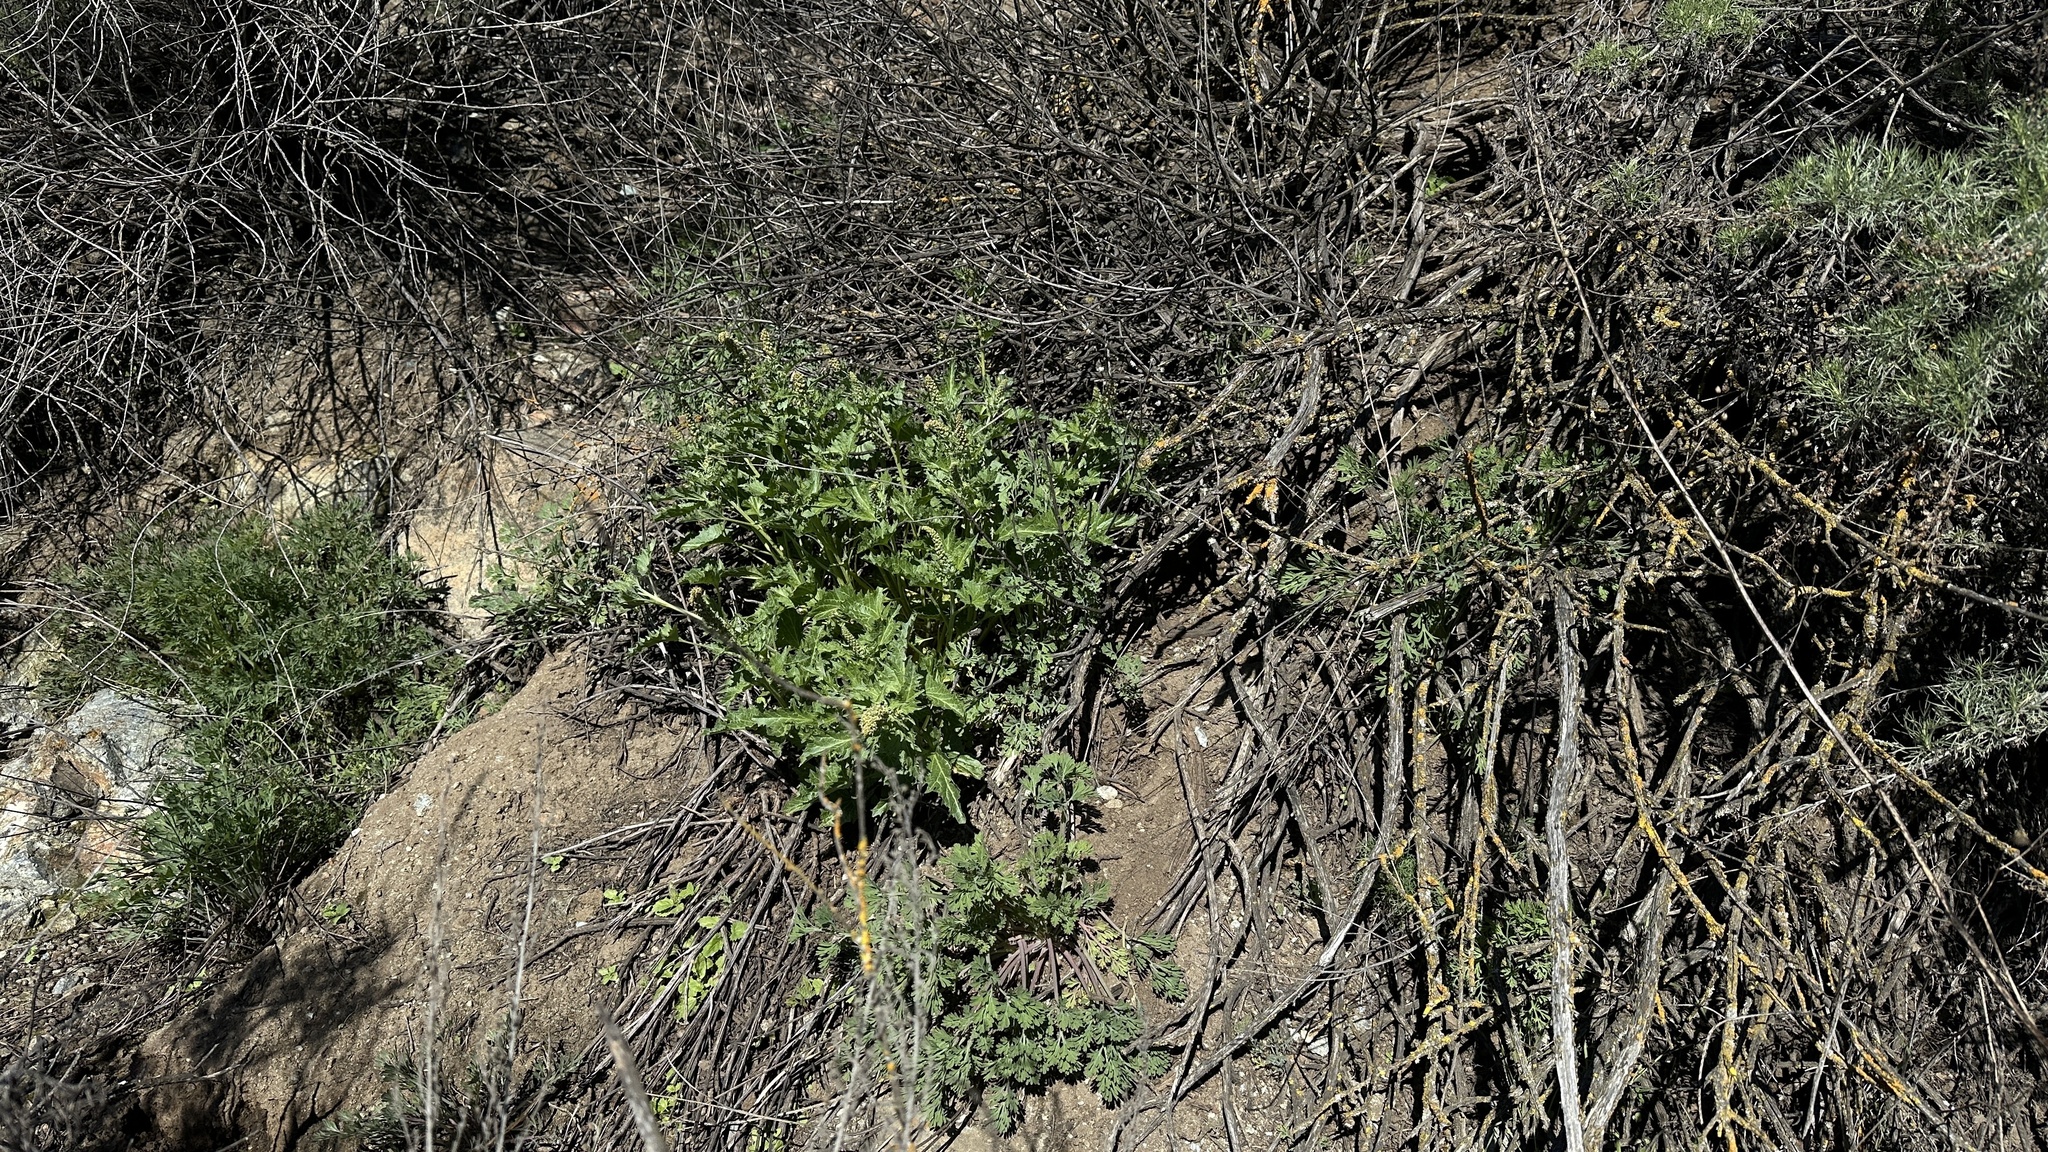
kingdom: Plantae
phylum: Tracheophyta
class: Magnoliopsida
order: Caryophyllales
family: Amaranthaceae
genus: Blitum
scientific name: Blitum californicum
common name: California goosefoot
